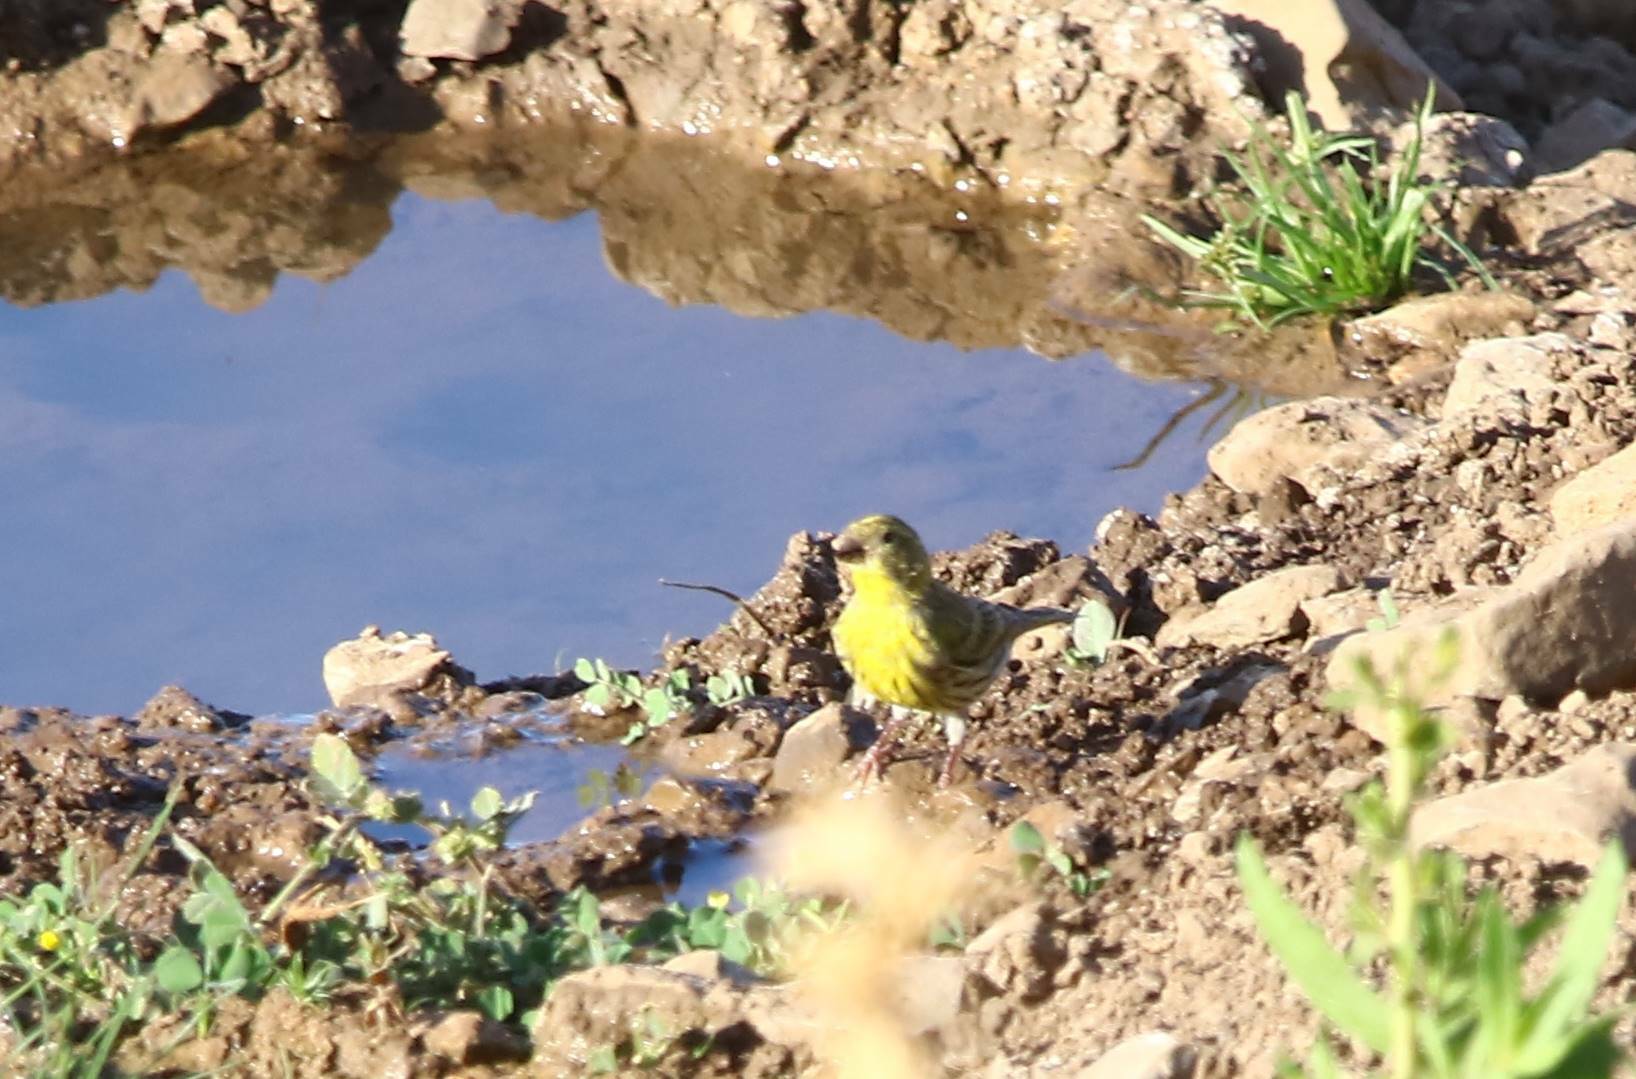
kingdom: Animalia
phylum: Chordata
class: Aves
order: Passeriformes
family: Fringillidae
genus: Serinus
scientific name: Serinus serinus
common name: European serin
